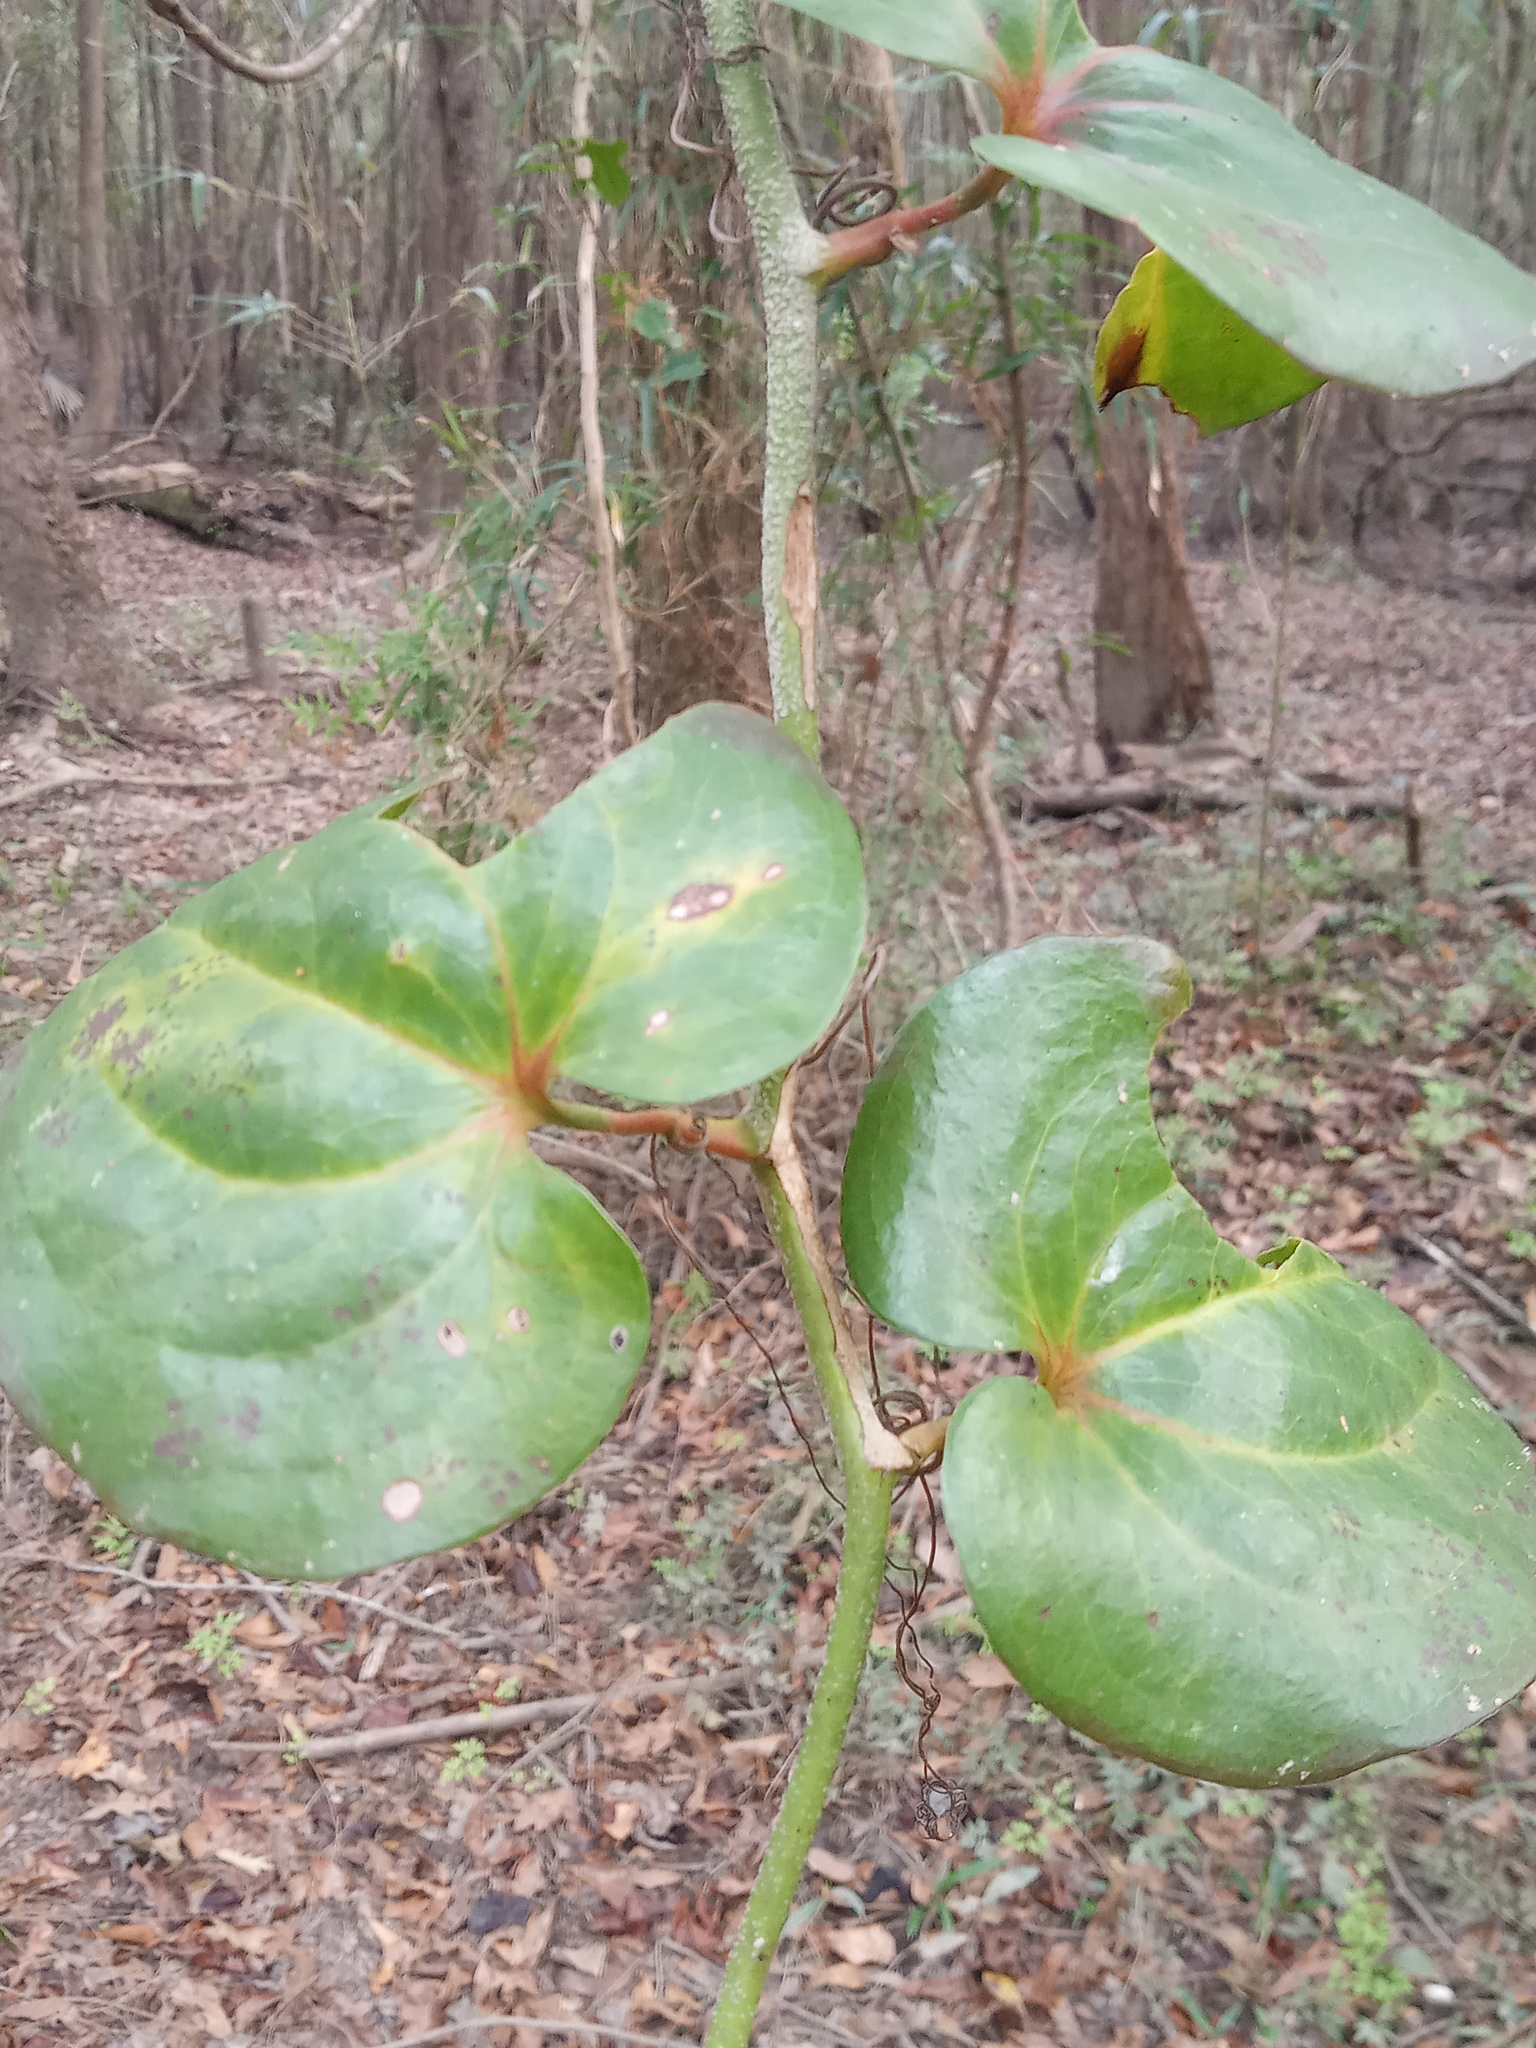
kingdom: Plantae
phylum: Tracheophyta
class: Liliopsida
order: Liliales
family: Smilacaceae
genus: Smilax
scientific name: Smilax rotundifolia
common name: Bullbriar
